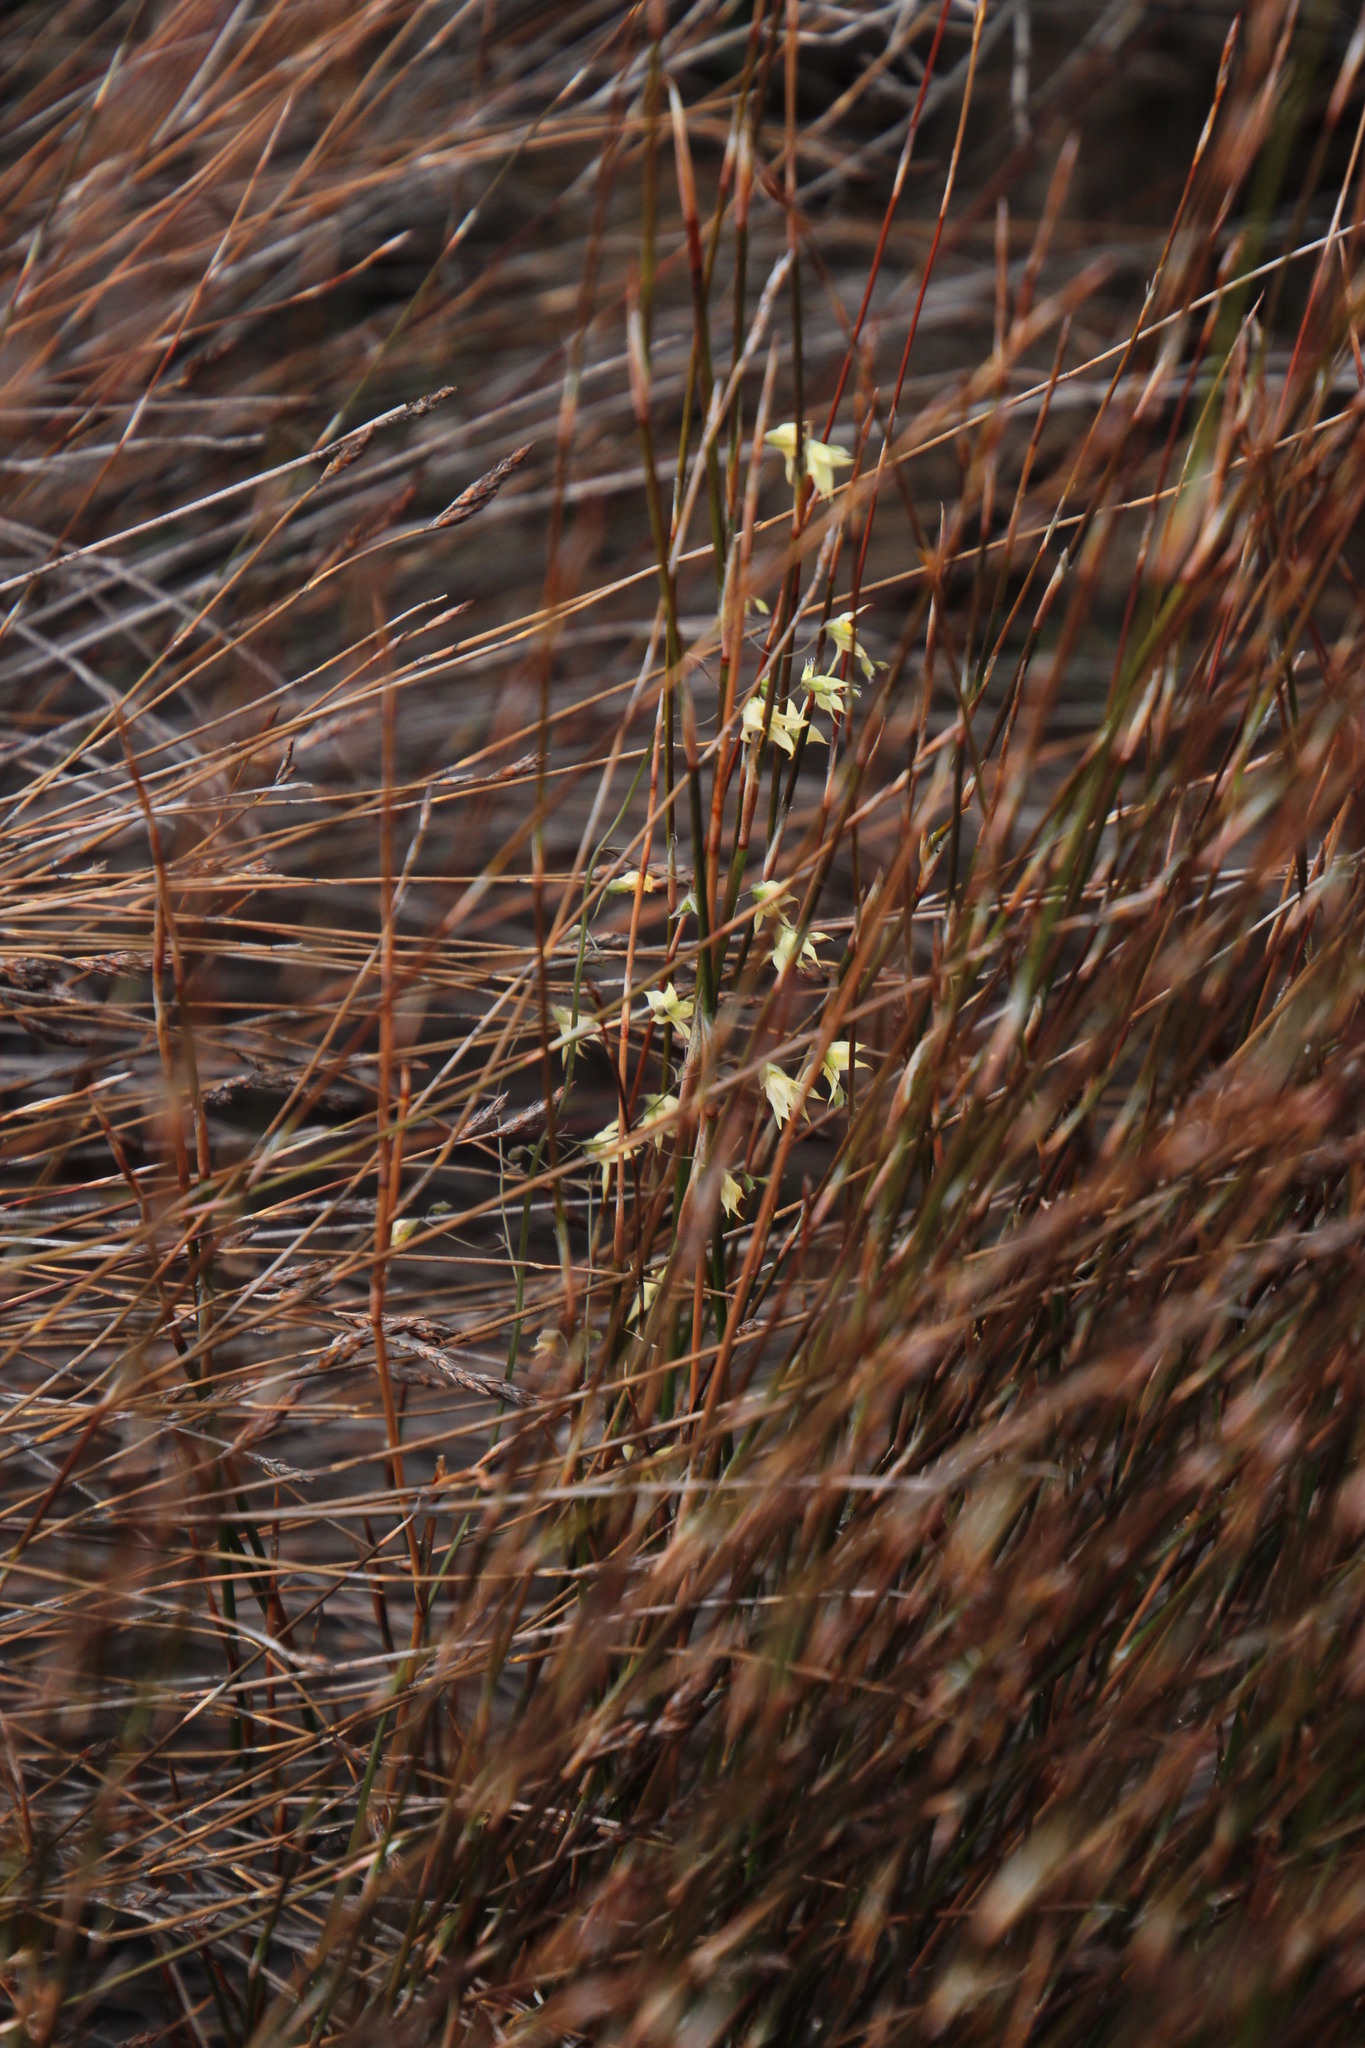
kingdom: Plantae
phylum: Tracheophyta
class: Liliopsida
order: Asparagales
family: Iridaceae
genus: Melasphaerula
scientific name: Melasphaerula graminea
